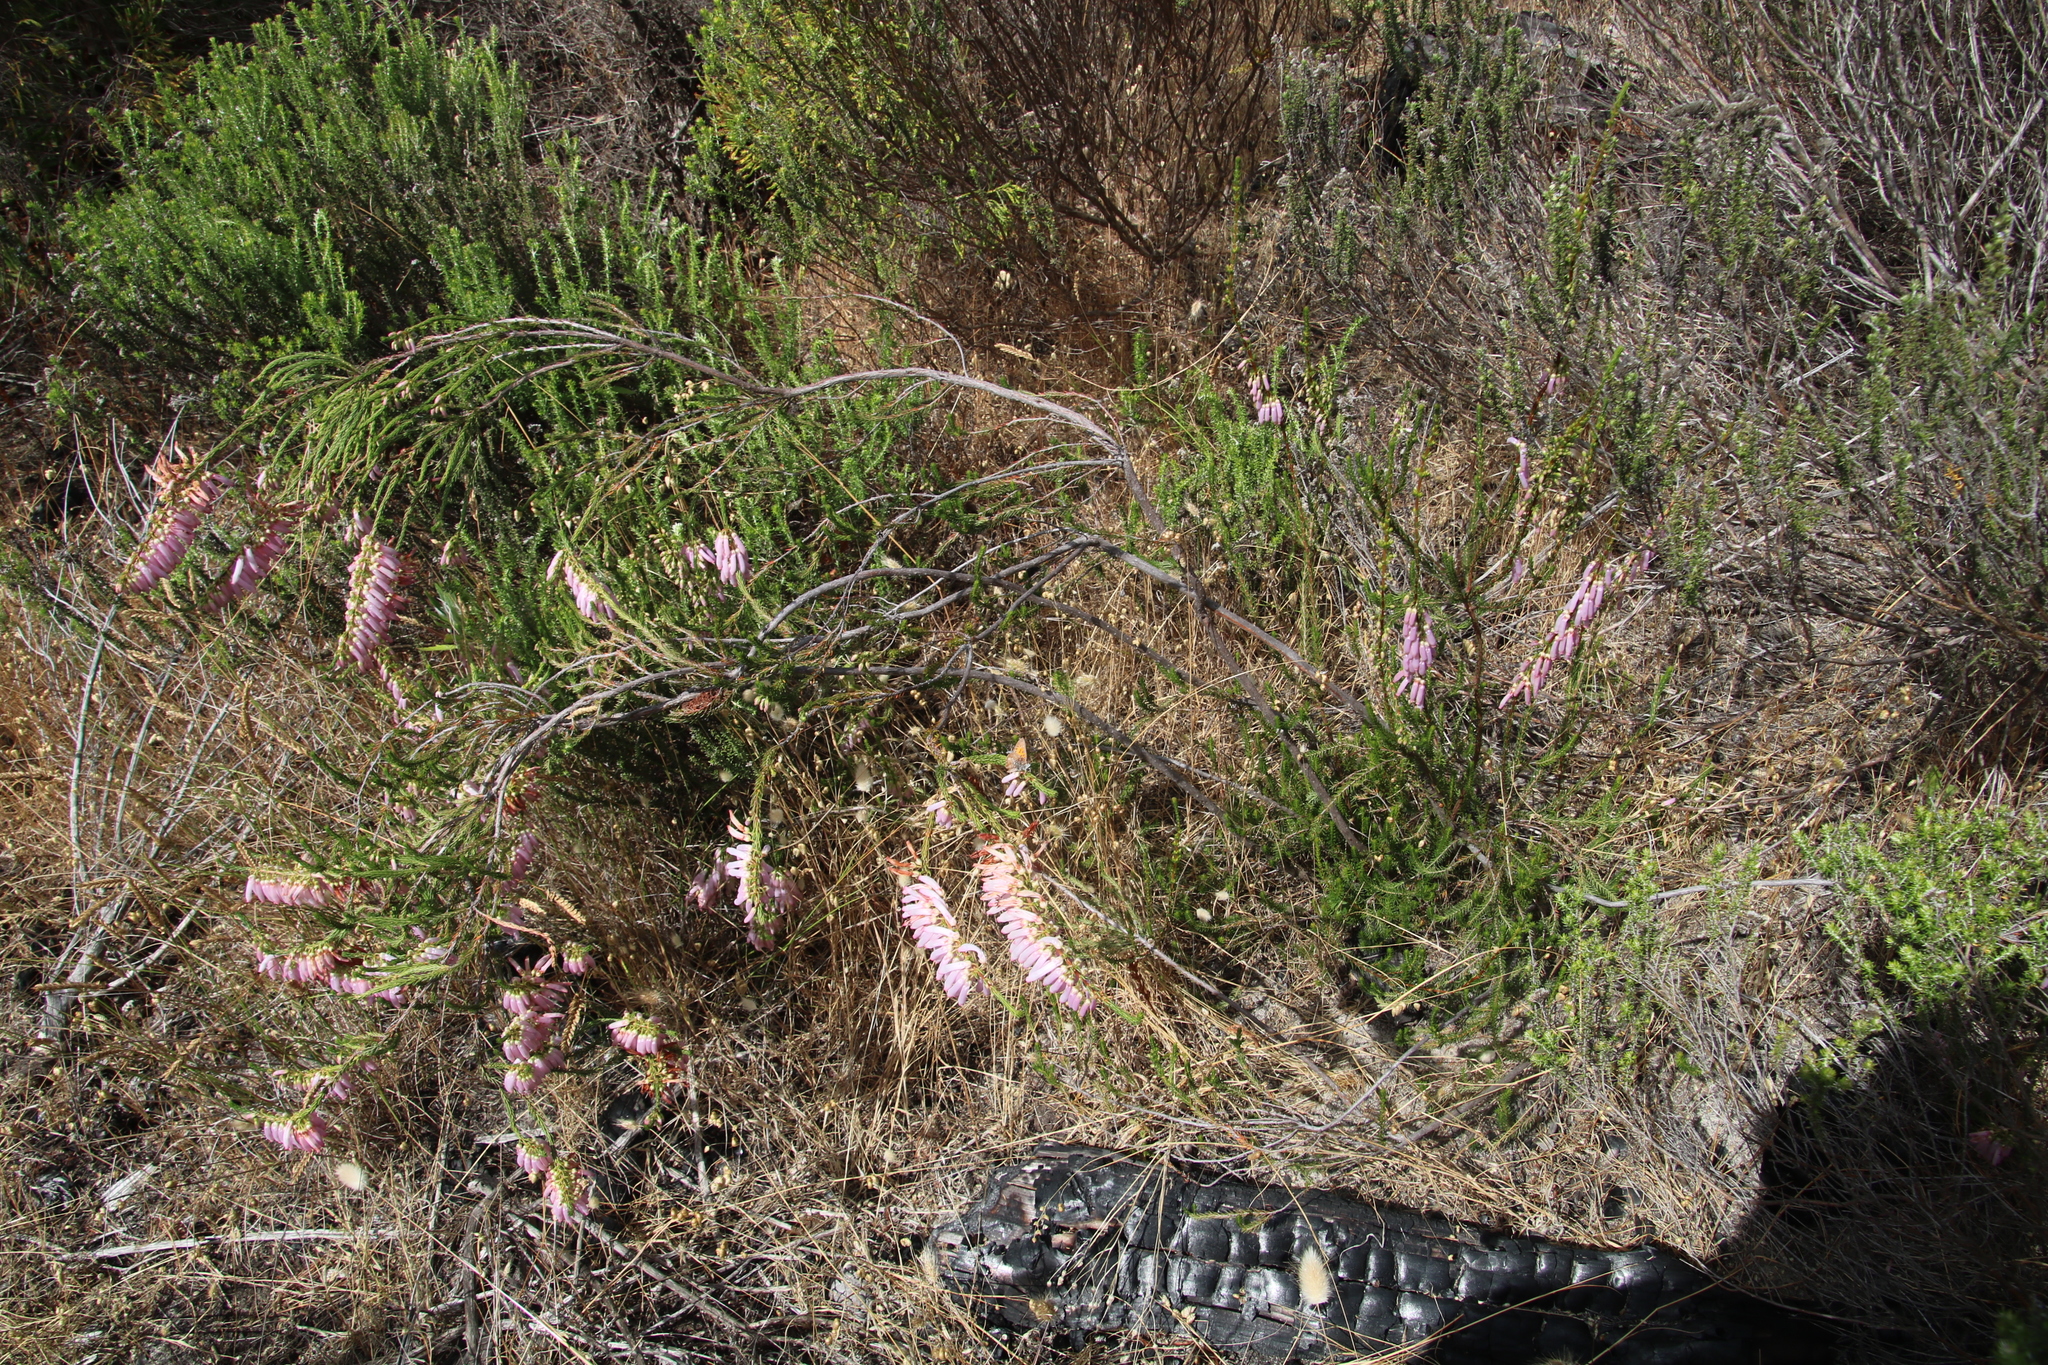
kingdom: Plantae
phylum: Tracheophyta
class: Magnoliopsida
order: Ericales
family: Ericaceae
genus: Erica
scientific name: Erica mammosa
